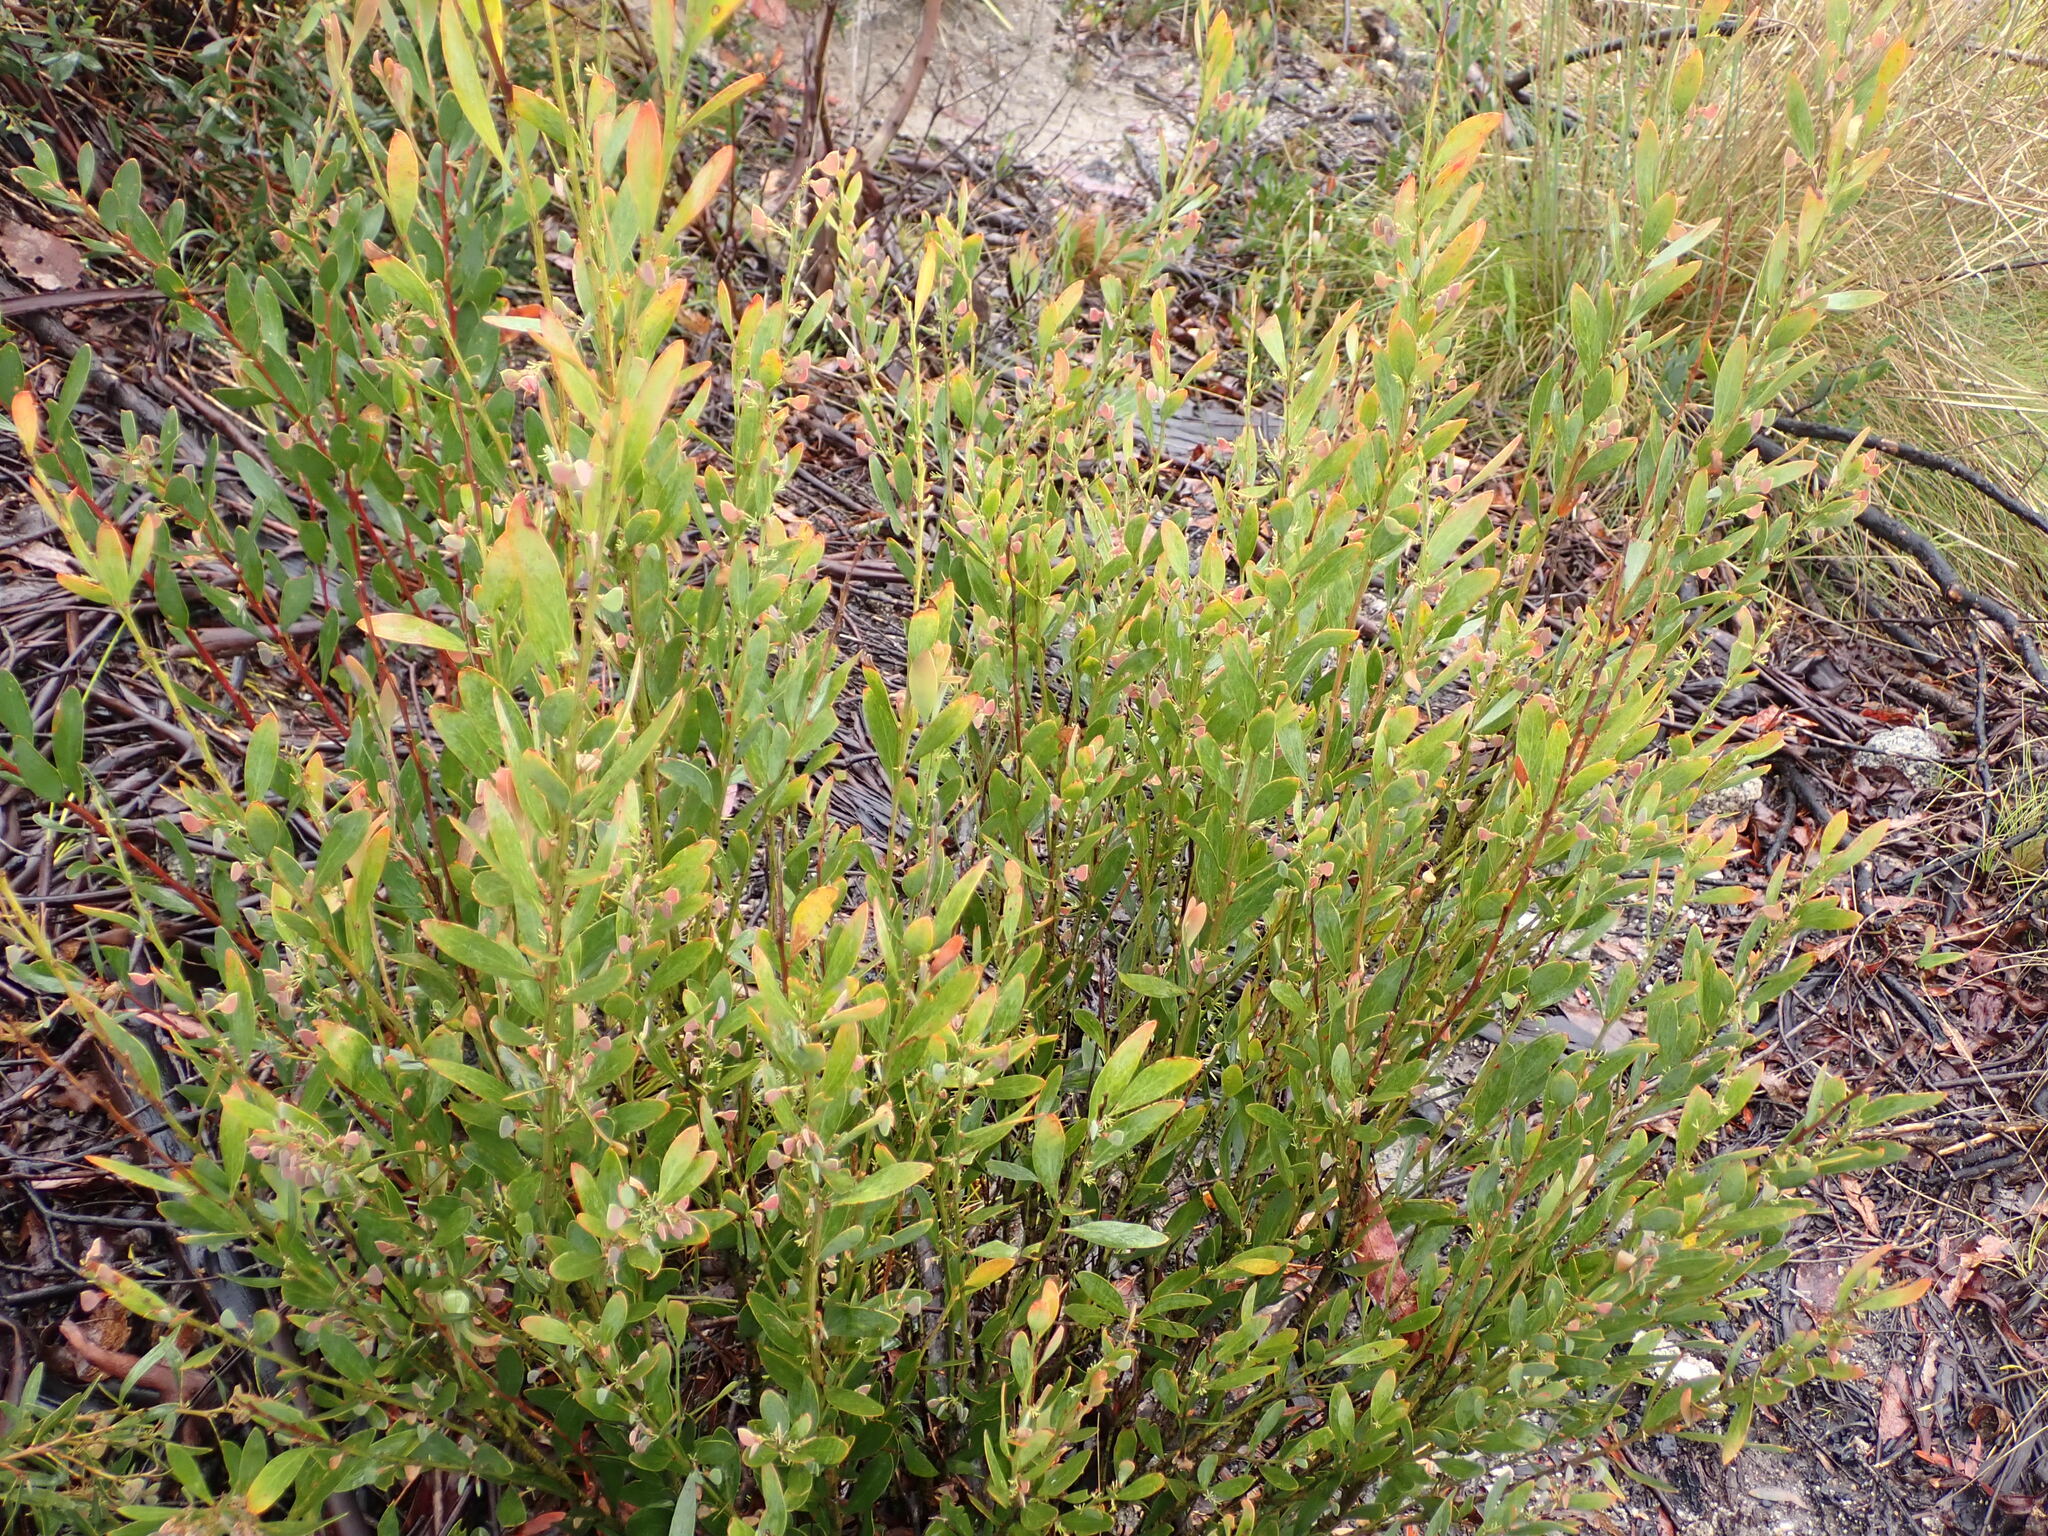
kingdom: Plantae
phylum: Tracheophyta
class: Magnoliopsida
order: Fabales
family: Fabaceae
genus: Daviesia
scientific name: Daviesia mimosoides
